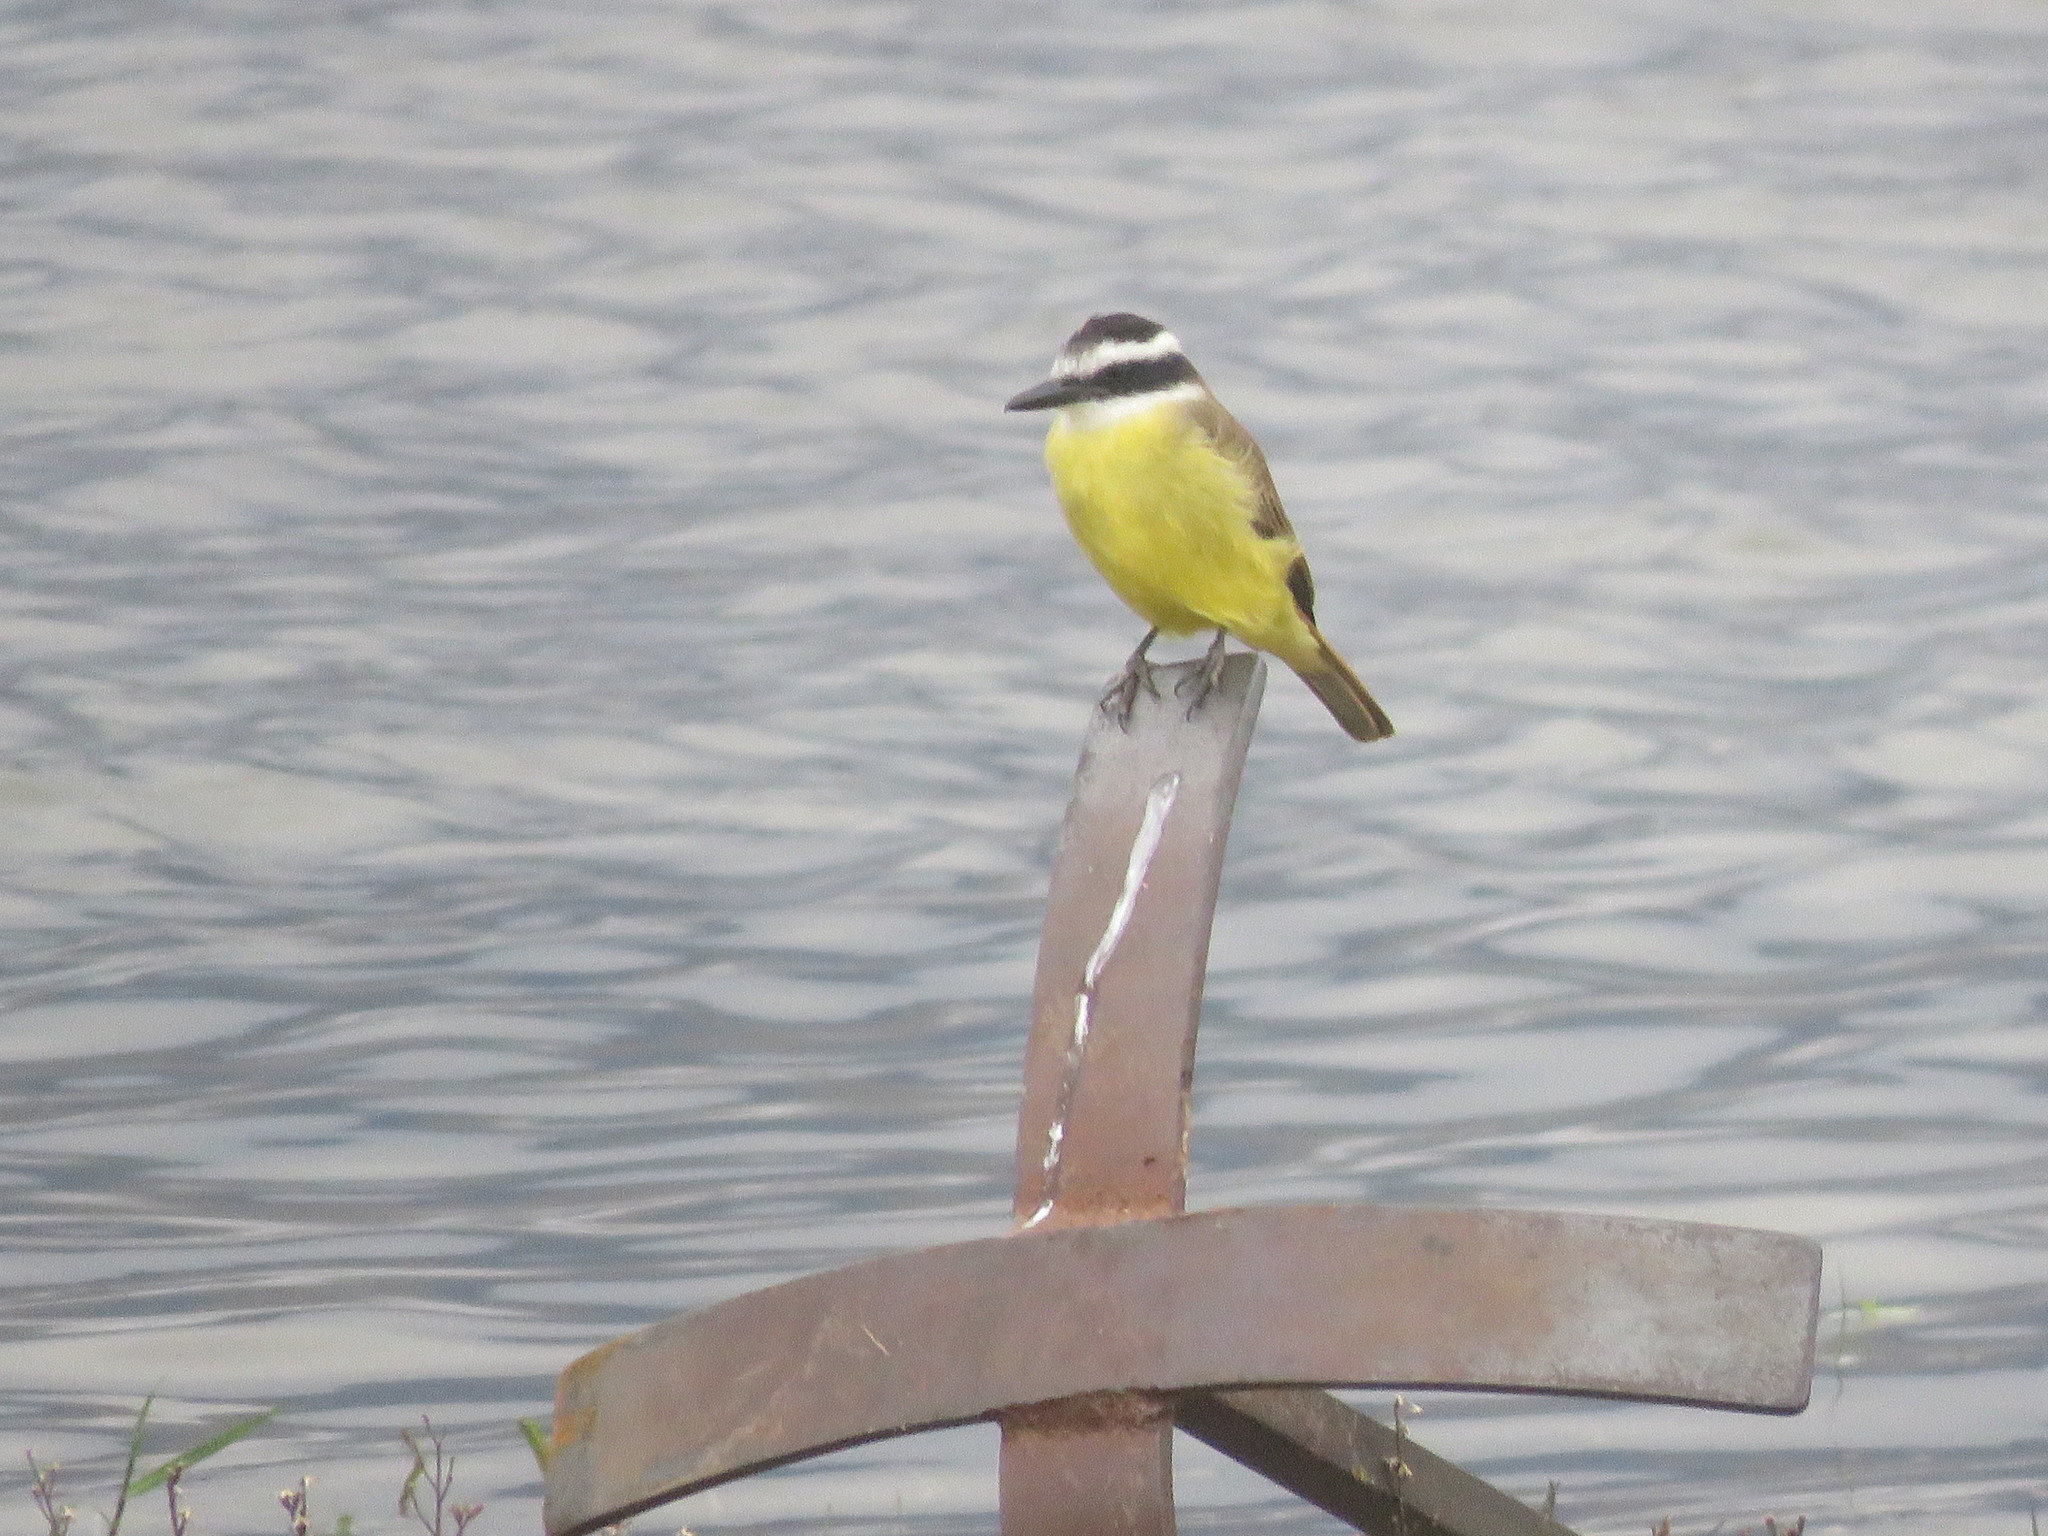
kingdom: Animalia
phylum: Chordata
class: Aves
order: Passeriformes
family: Tyrannidae
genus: Pitangus
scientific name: Pitangus sulphuratus
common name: Great kiskadee
